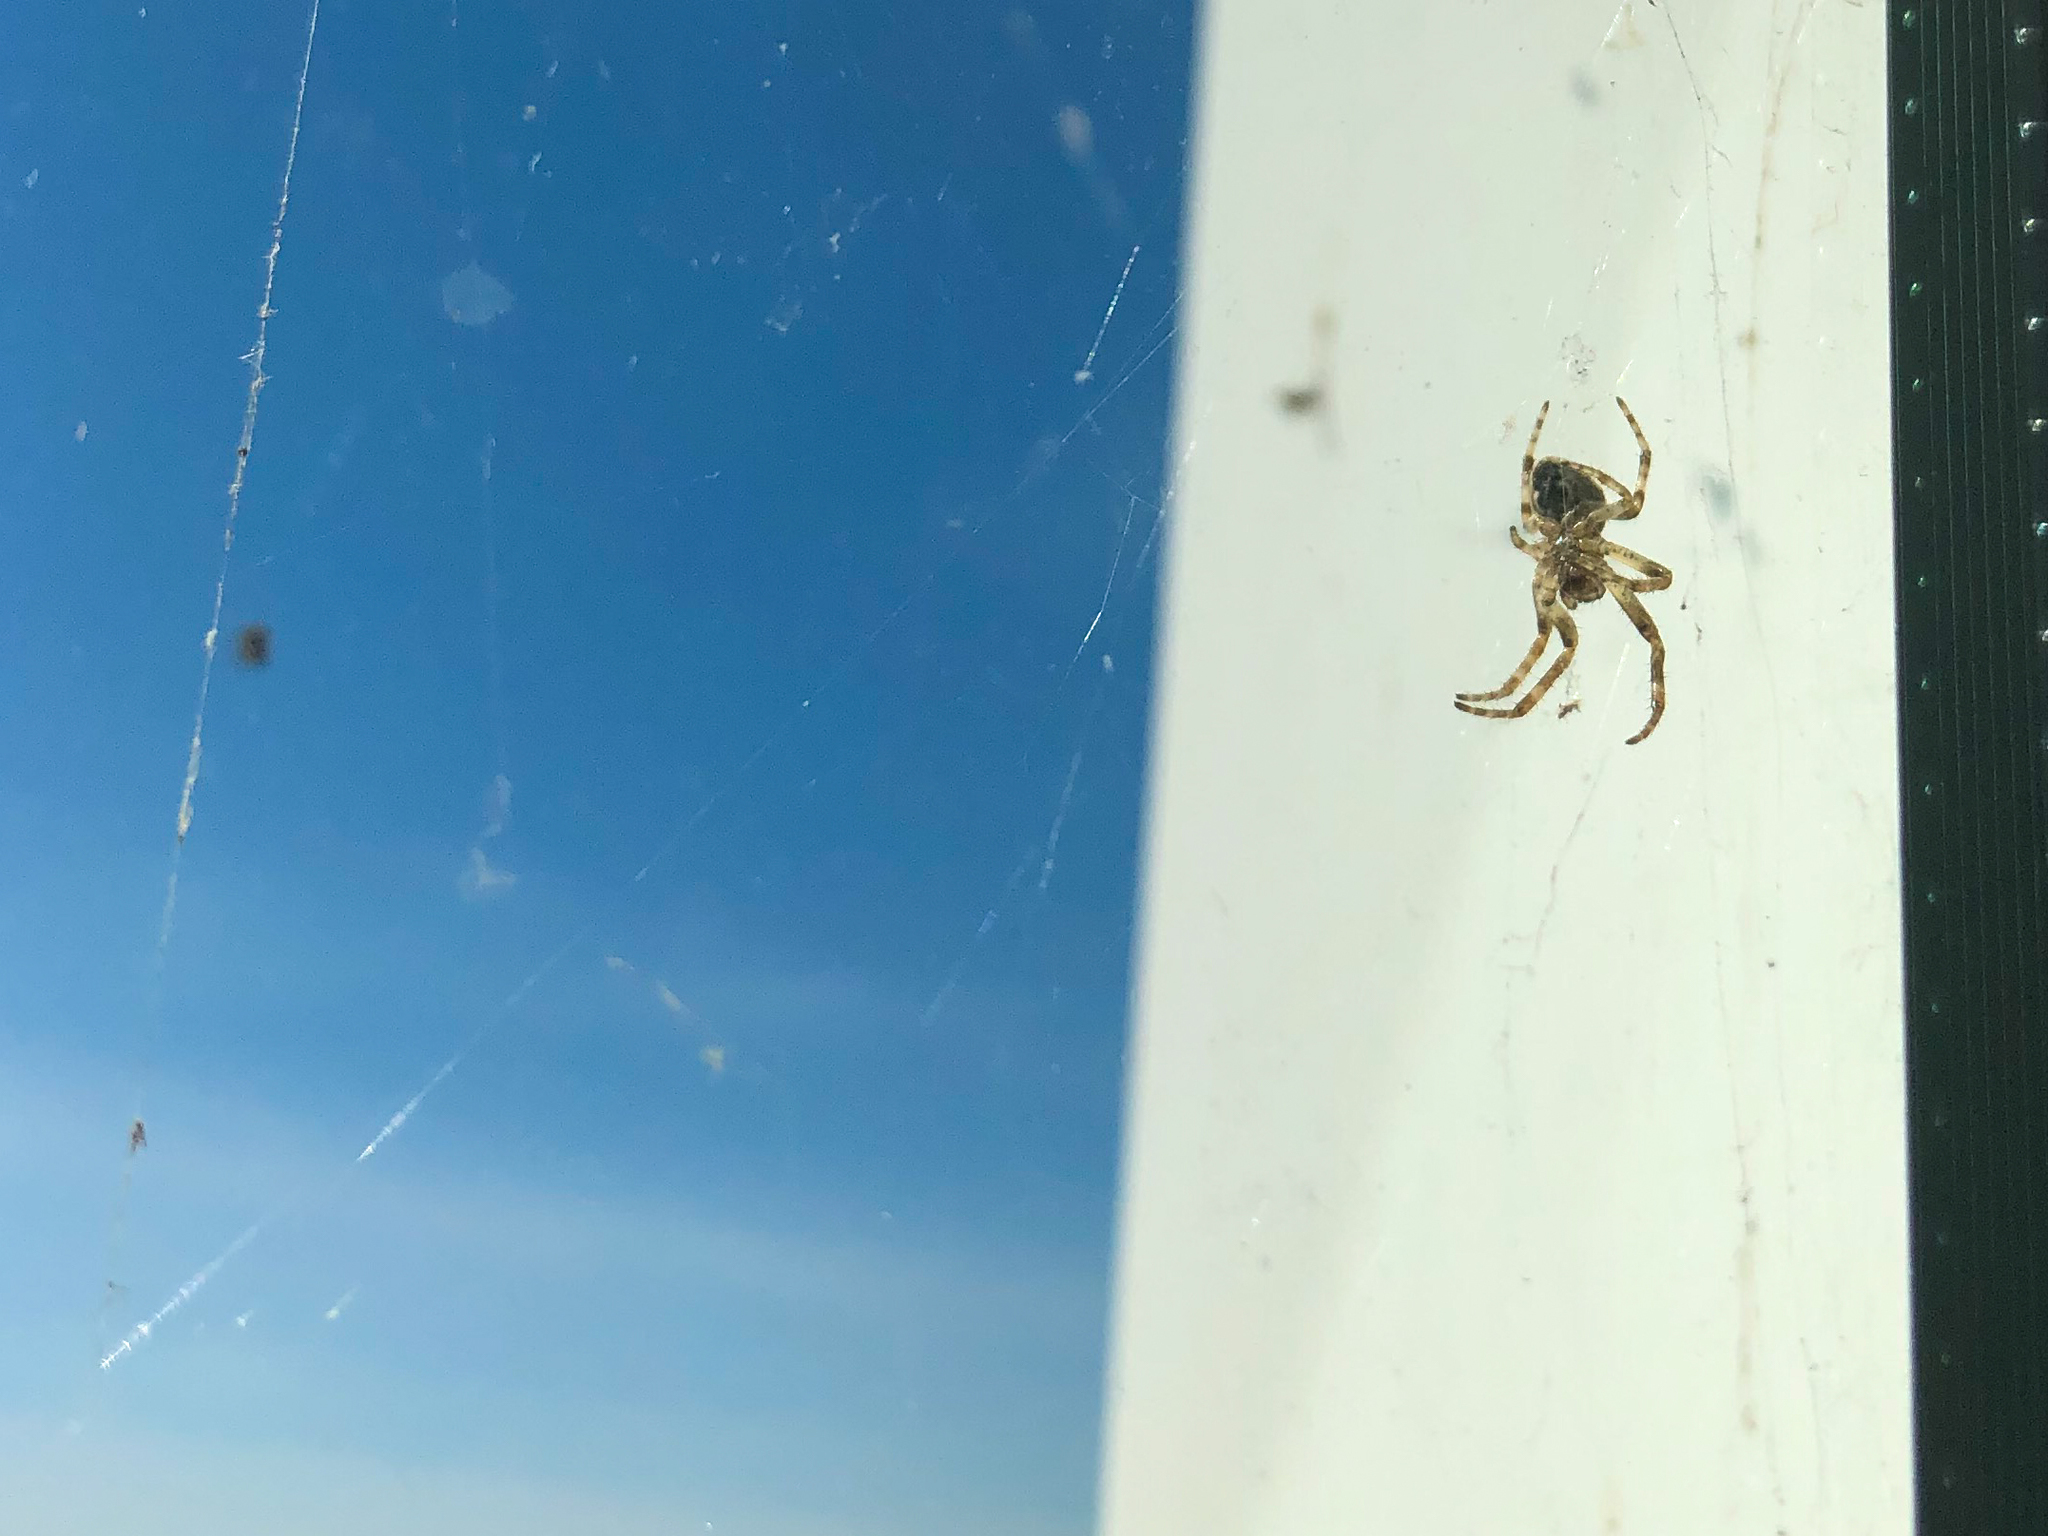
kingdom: Animalia
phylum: Arthropoda
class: Arachnida
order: Araneae
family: Araneidae
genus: Larinioides
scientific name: Larinioides sclopetarius
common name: Bridge orbweaver
